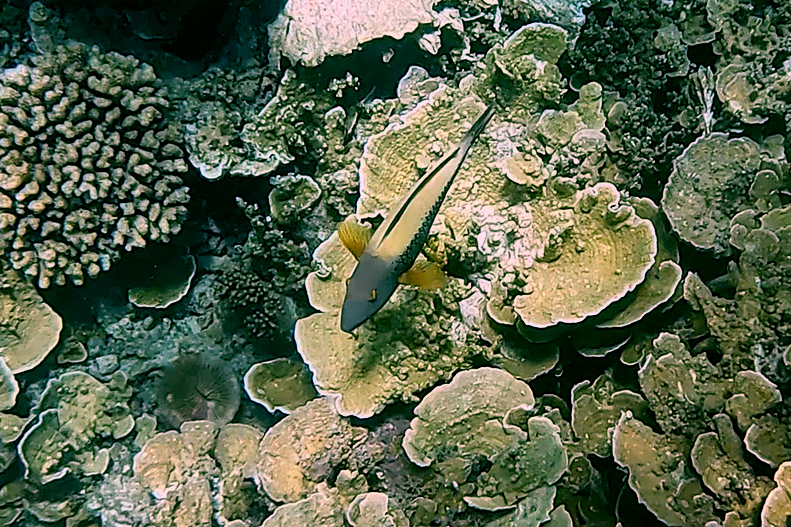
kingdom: Animalia
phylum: Chordata
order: Perciformes
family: Scaridae
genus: Cetoscarus
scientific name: Cetoscarus ocellatus
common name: Bicolor parrotfish
